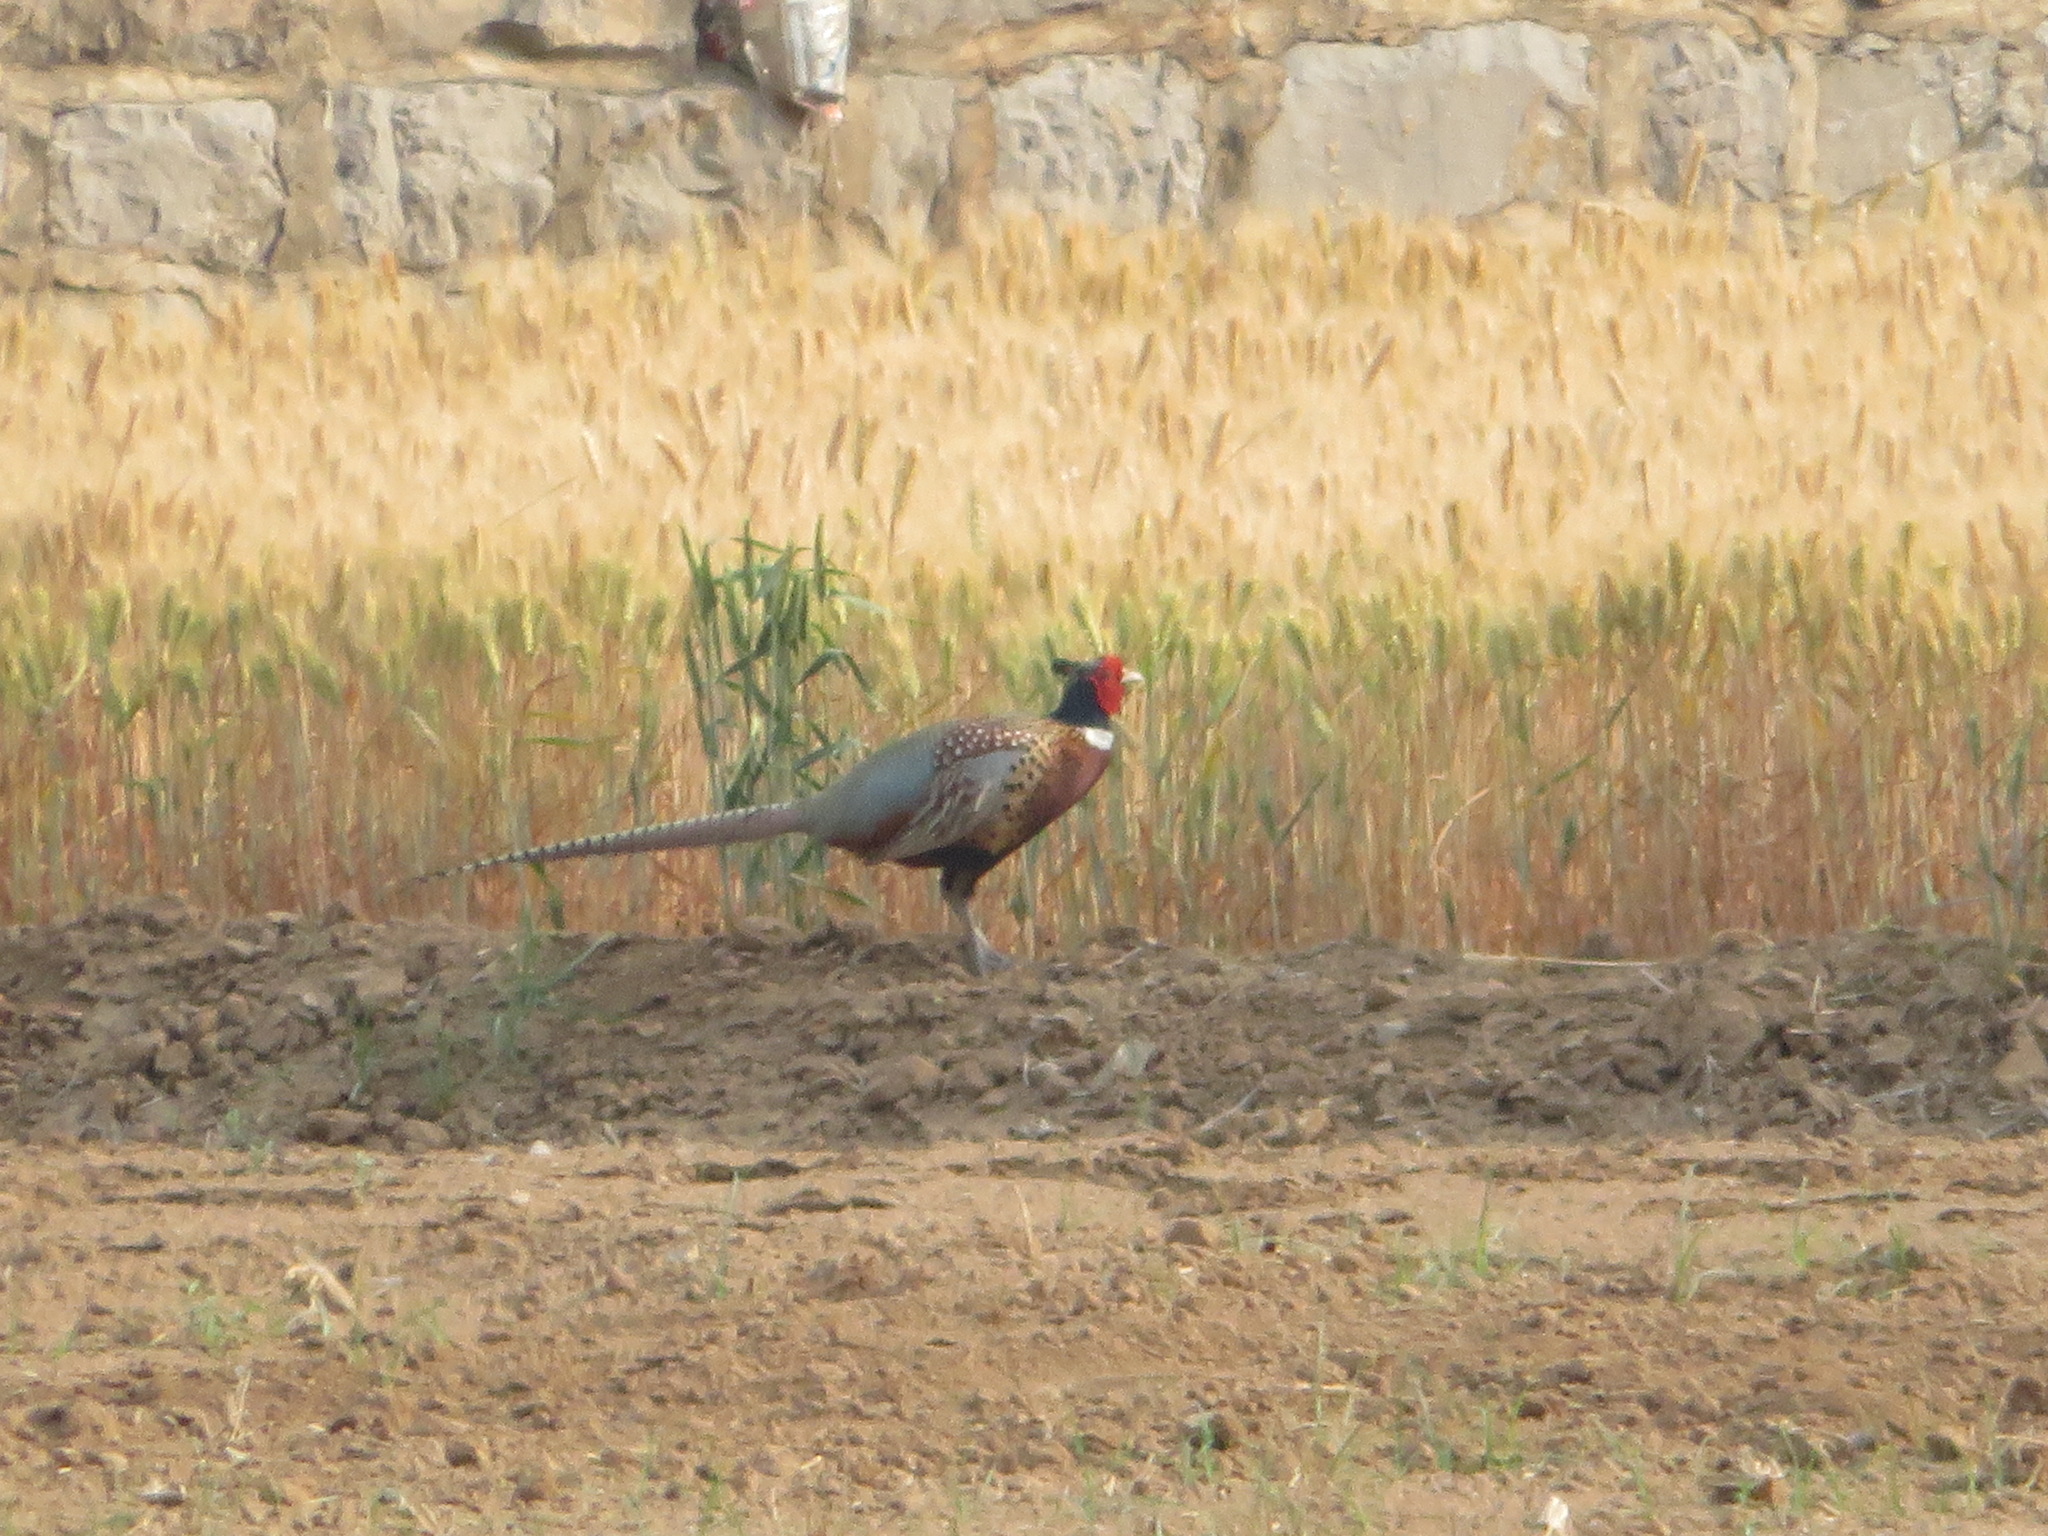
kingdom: Animalia
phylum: Chordata
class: Aves
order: Galliformes
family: Phasianidae
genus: Phasianus
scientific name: Phasianus colchicus
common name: Common pheasant
